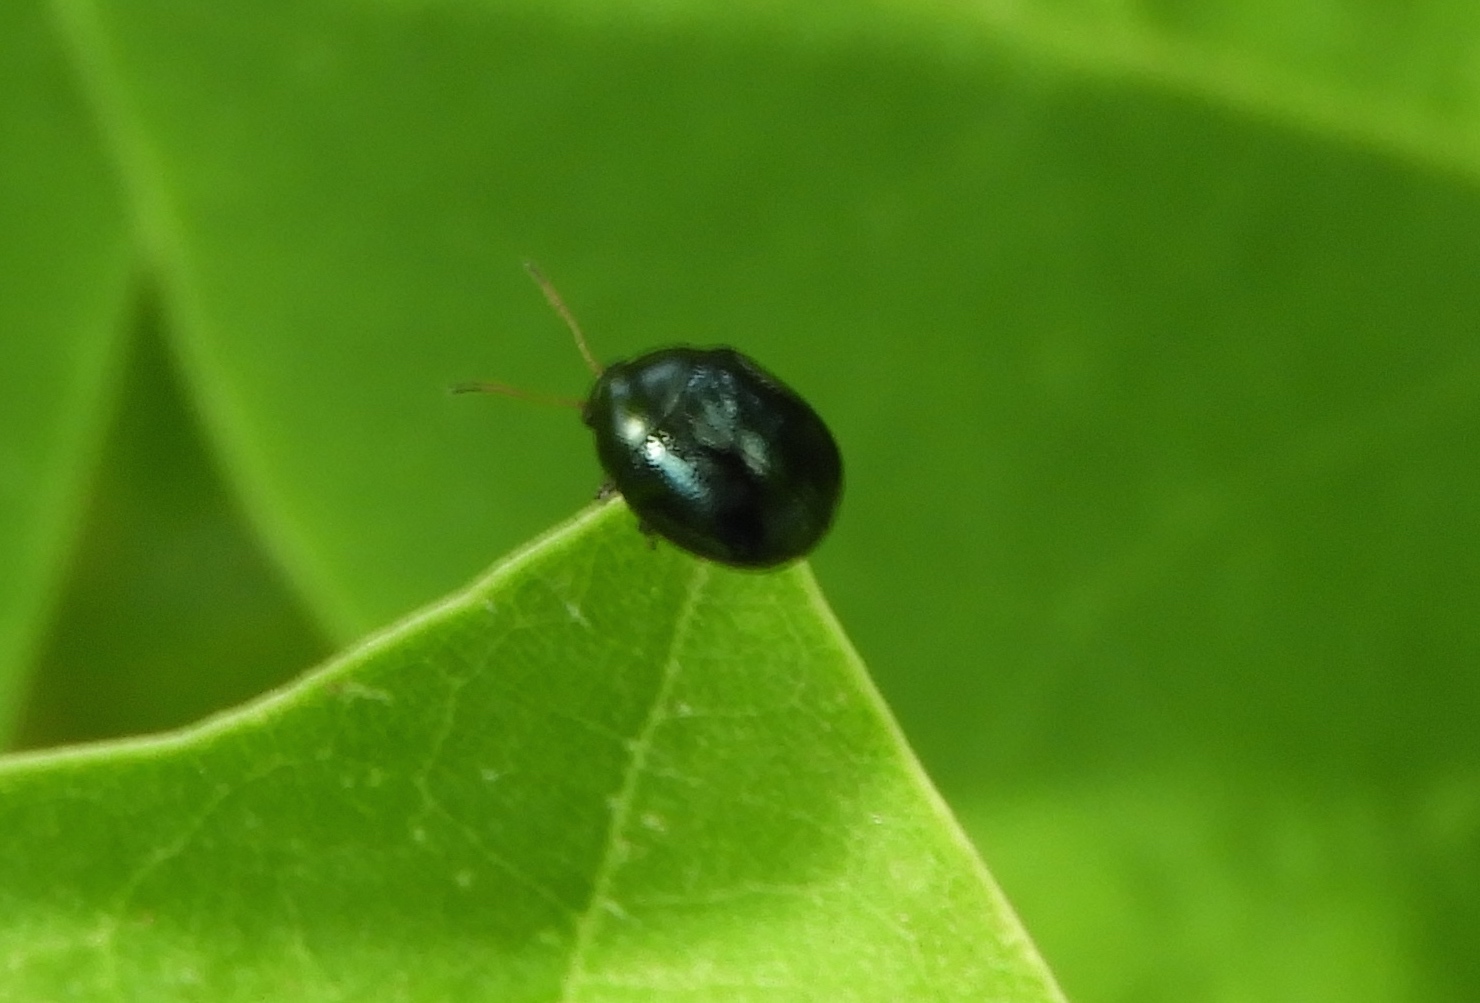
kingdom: Animalia
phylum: Arthropoda
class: Insecta
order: Coleoptera
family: Chrysomelidae
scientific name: Chrysomelidae
